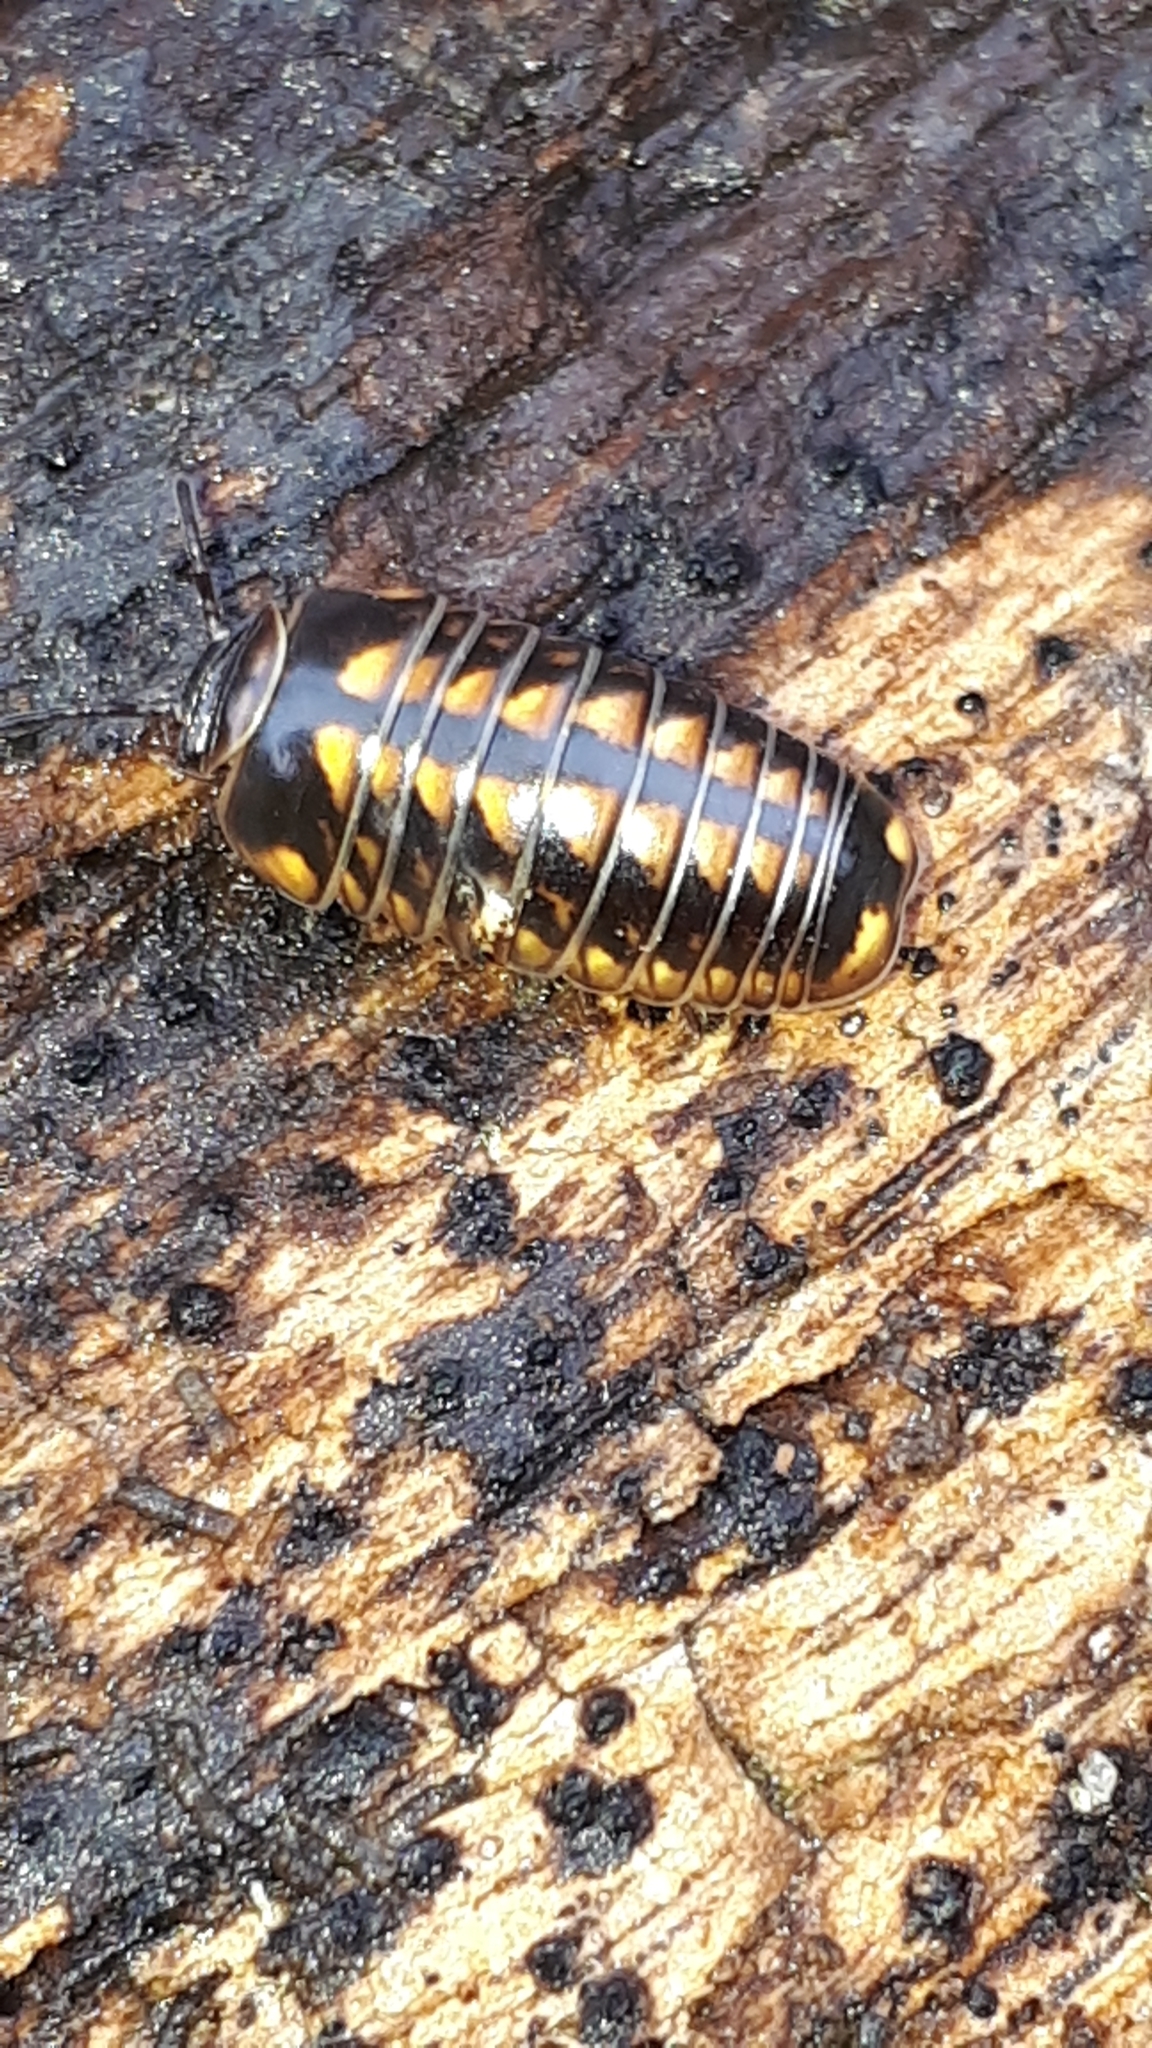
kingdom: Animalia
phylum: Arthropoda
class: Diplopoda
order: Glomerida
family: Glomeridae
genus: Glomeris
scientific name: Glomeris hexasticha
